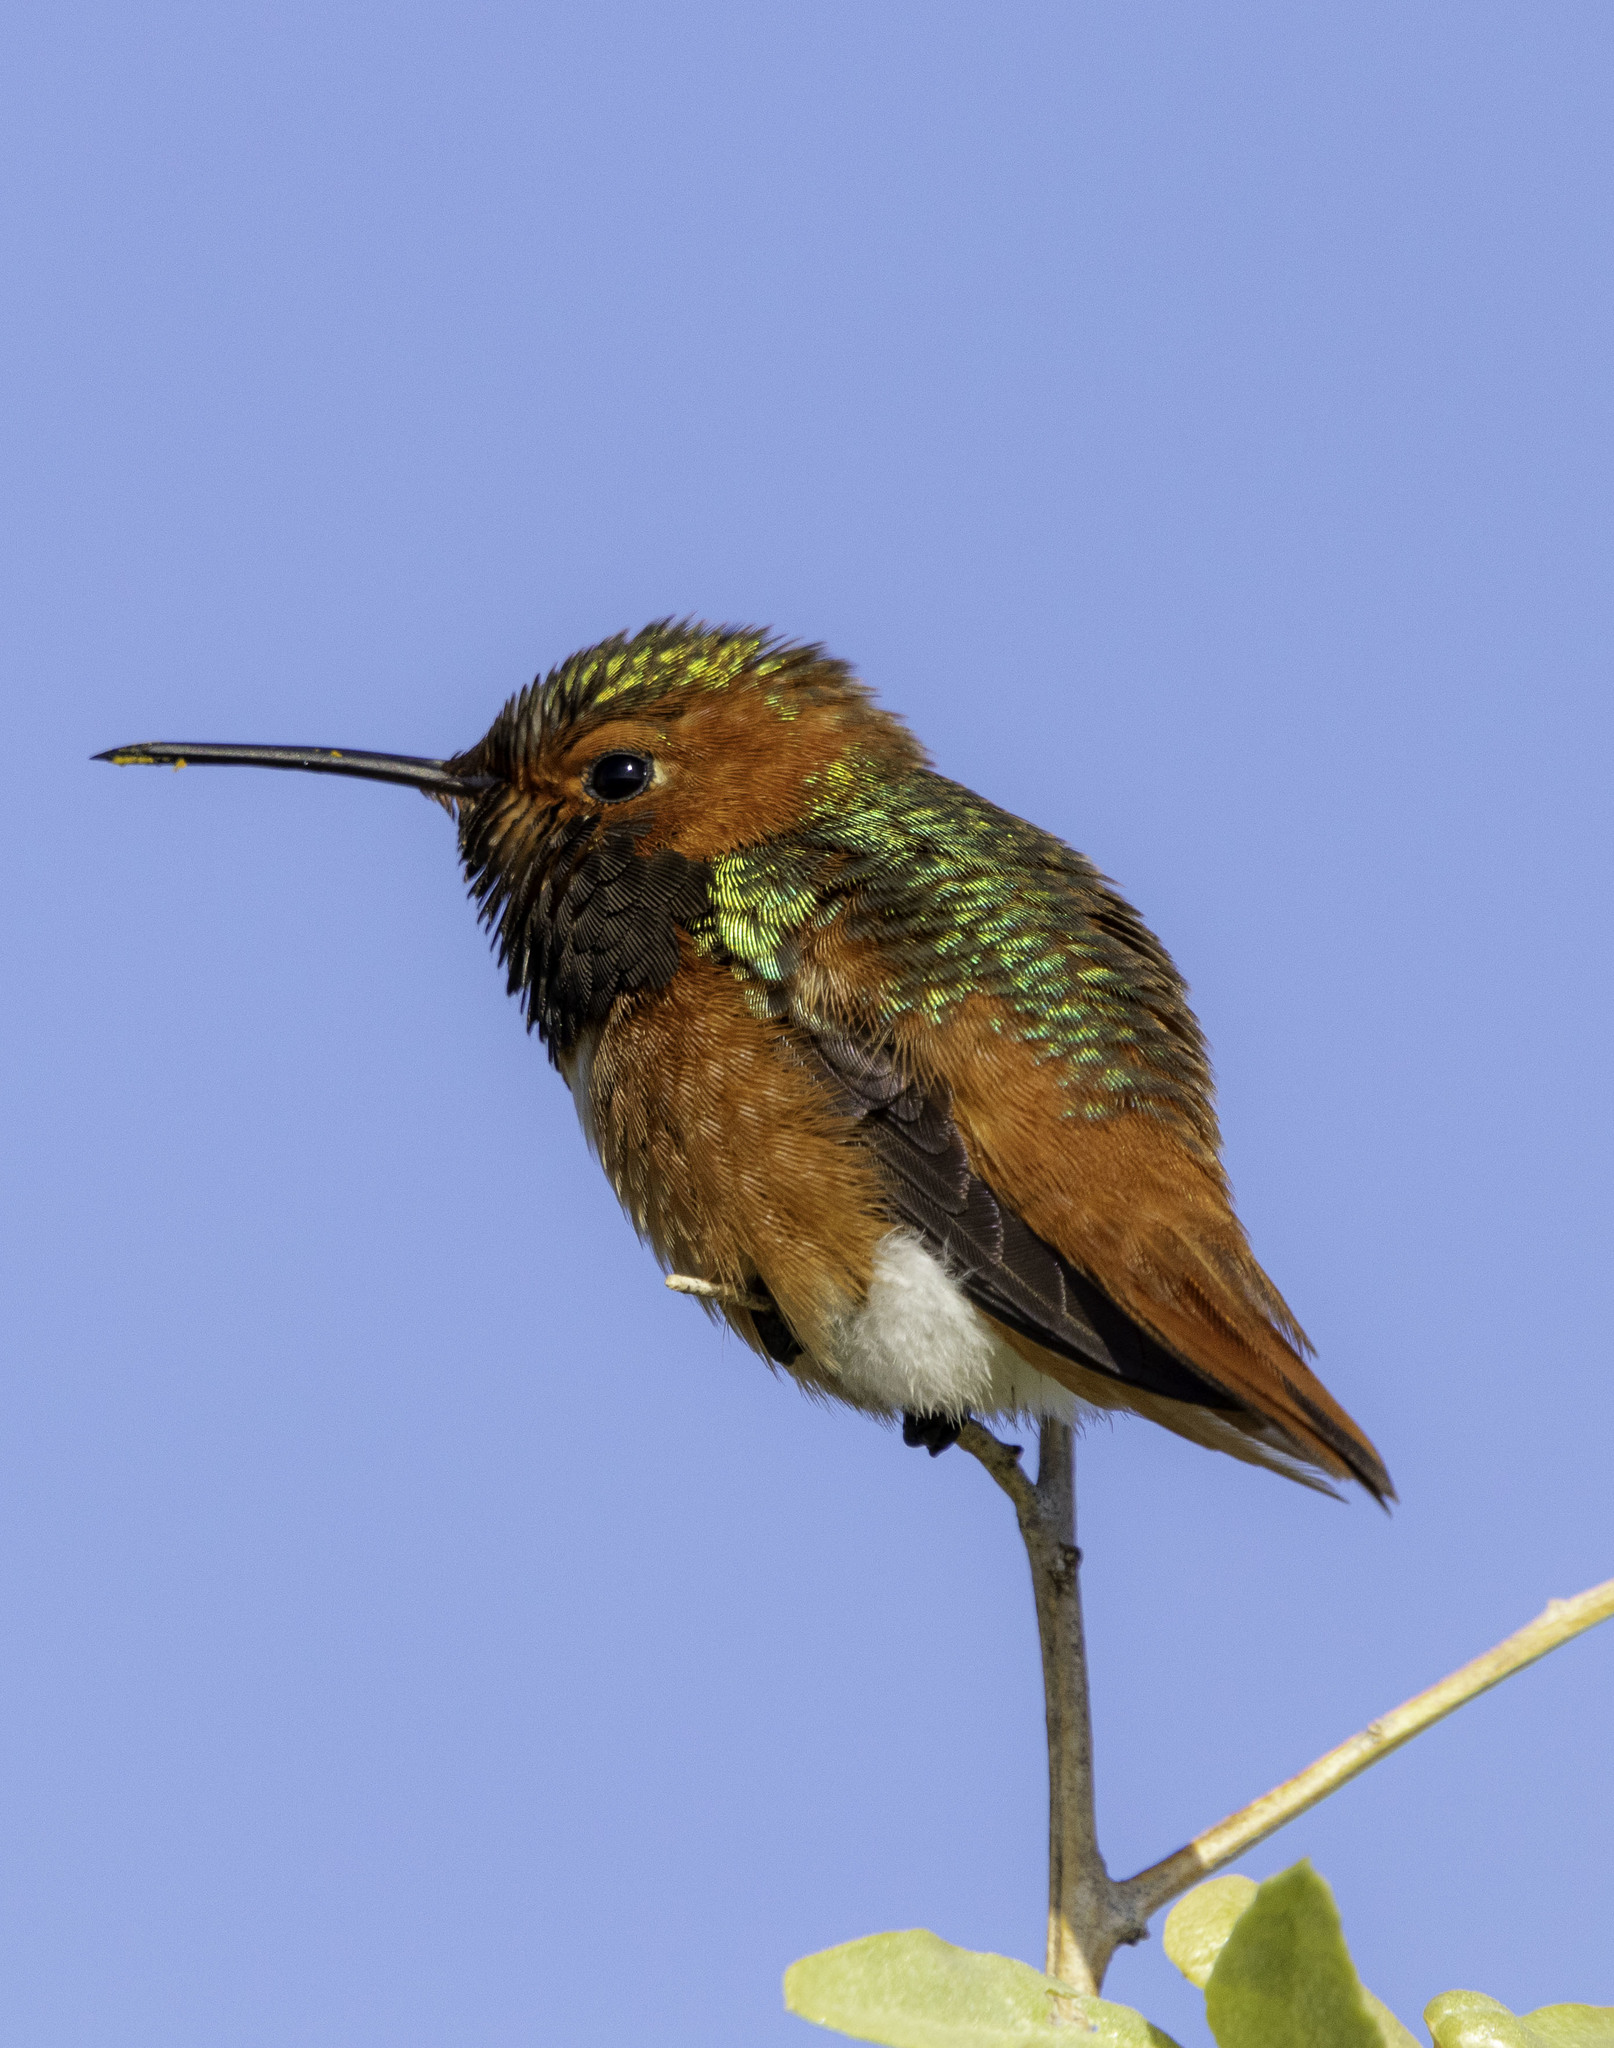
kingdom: Animalia
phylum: Chordata
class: Aves
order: Apodiformes
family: Trochilidae
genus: Selasphorus
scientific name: Selasphorus sasin
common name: Allen's hummingbird
